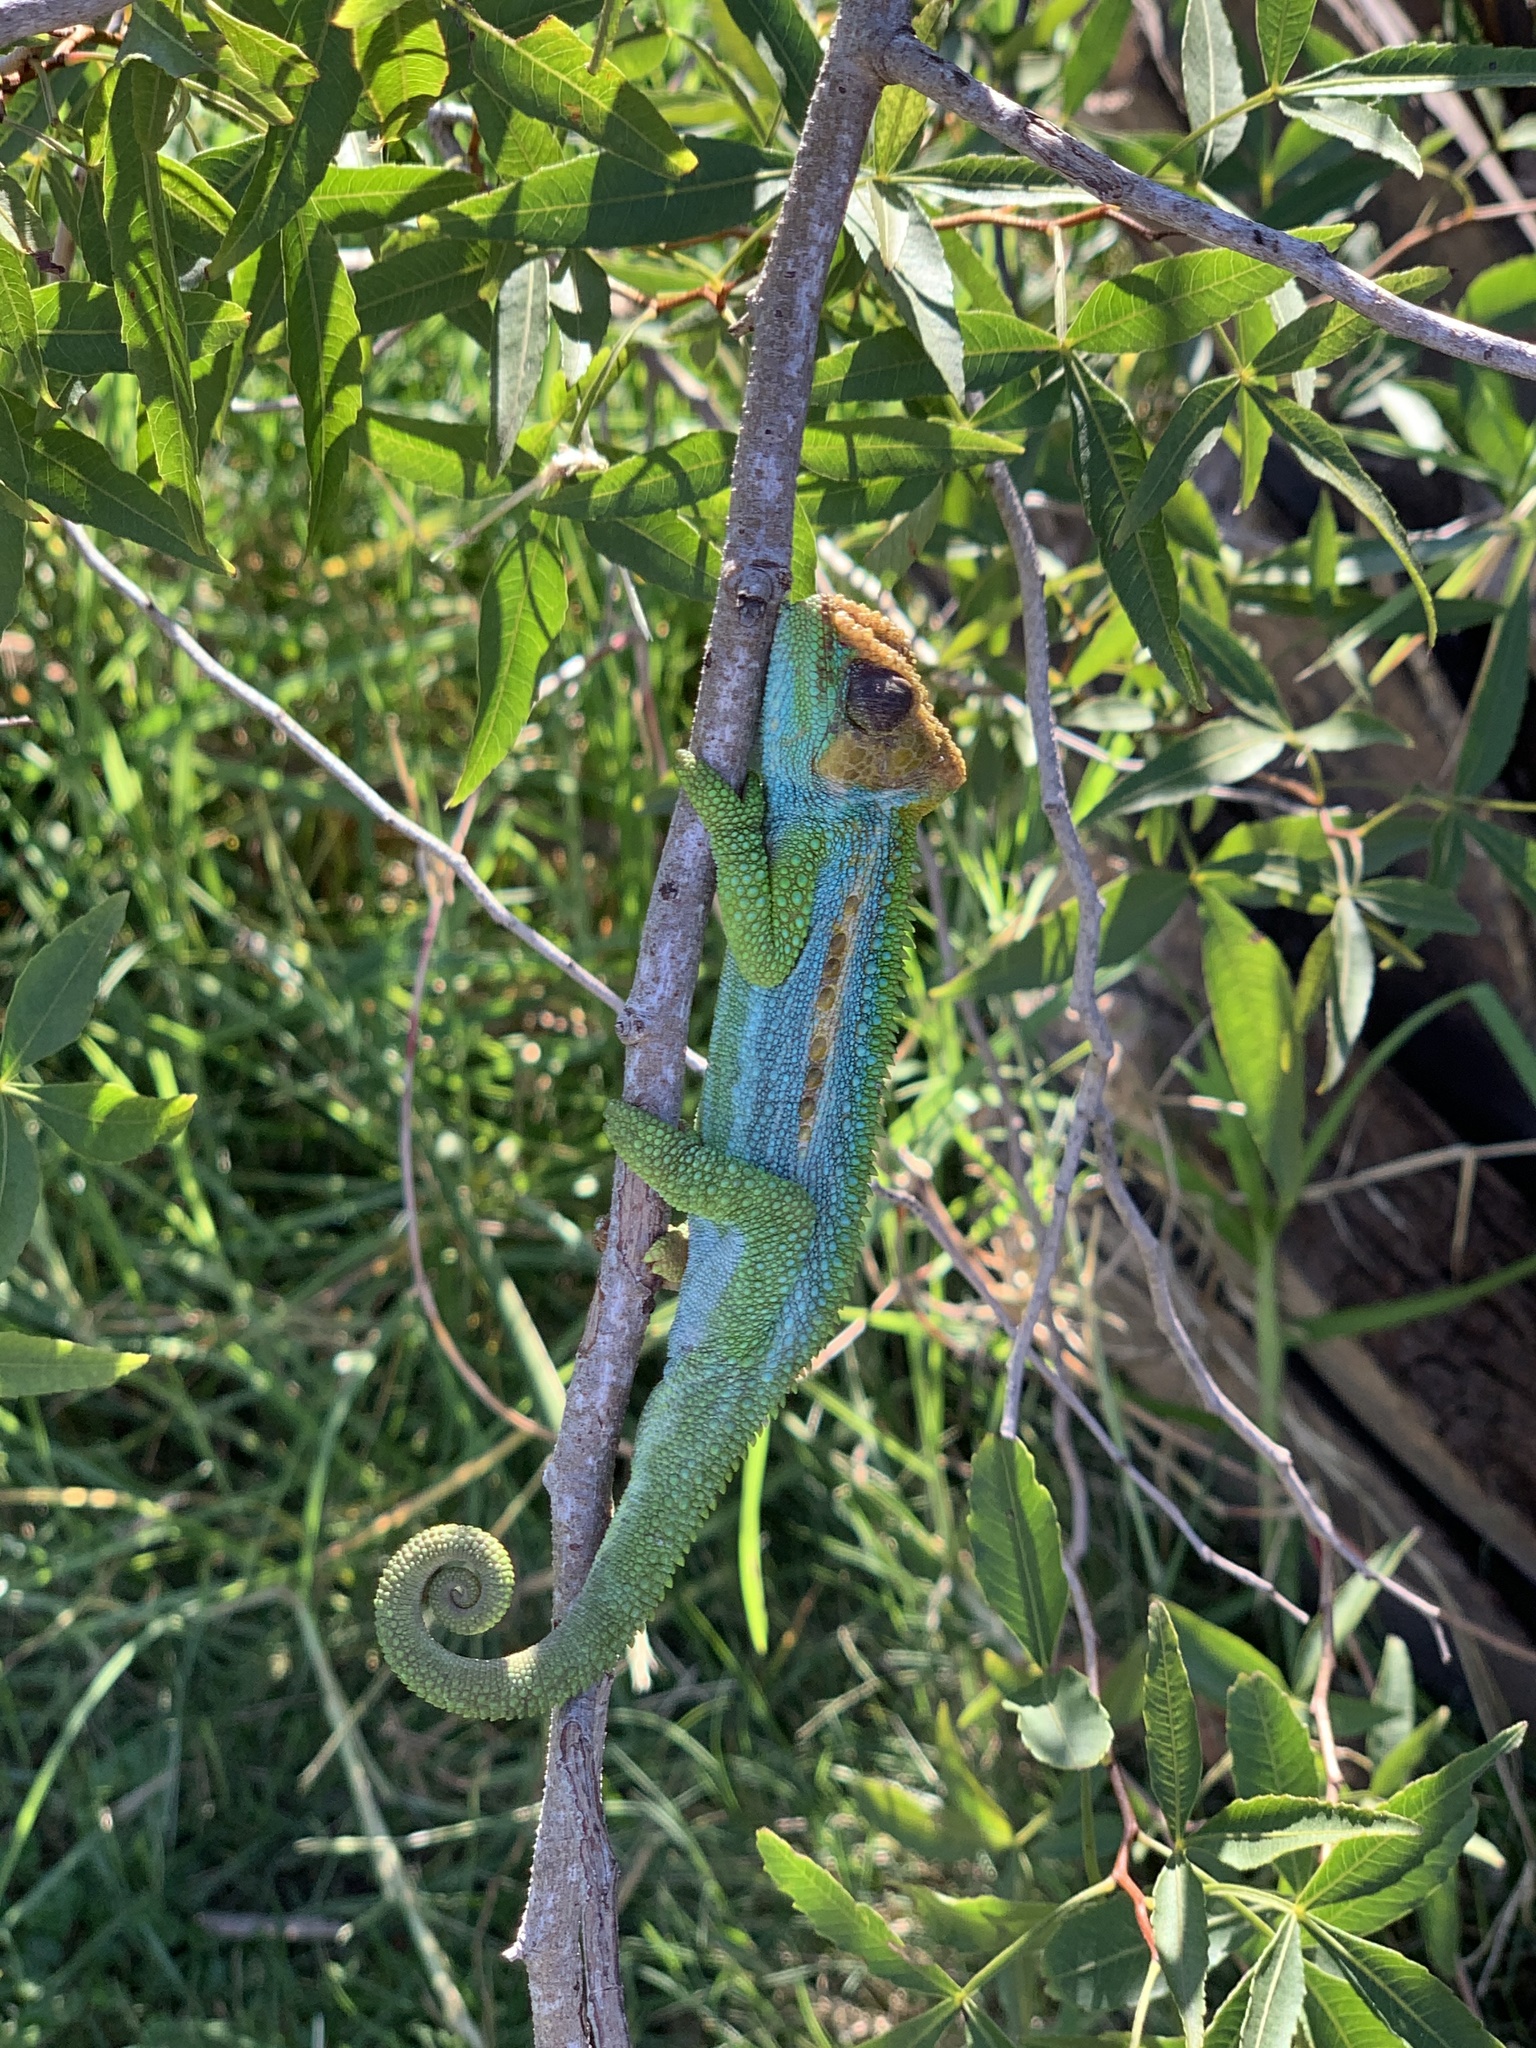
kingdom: Animalia
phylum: Chordata
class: Squamata
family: Chamaeleonidae
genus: Bradypodion
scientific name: Bradypodion pumilum
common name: Cape dwarf chameleon
